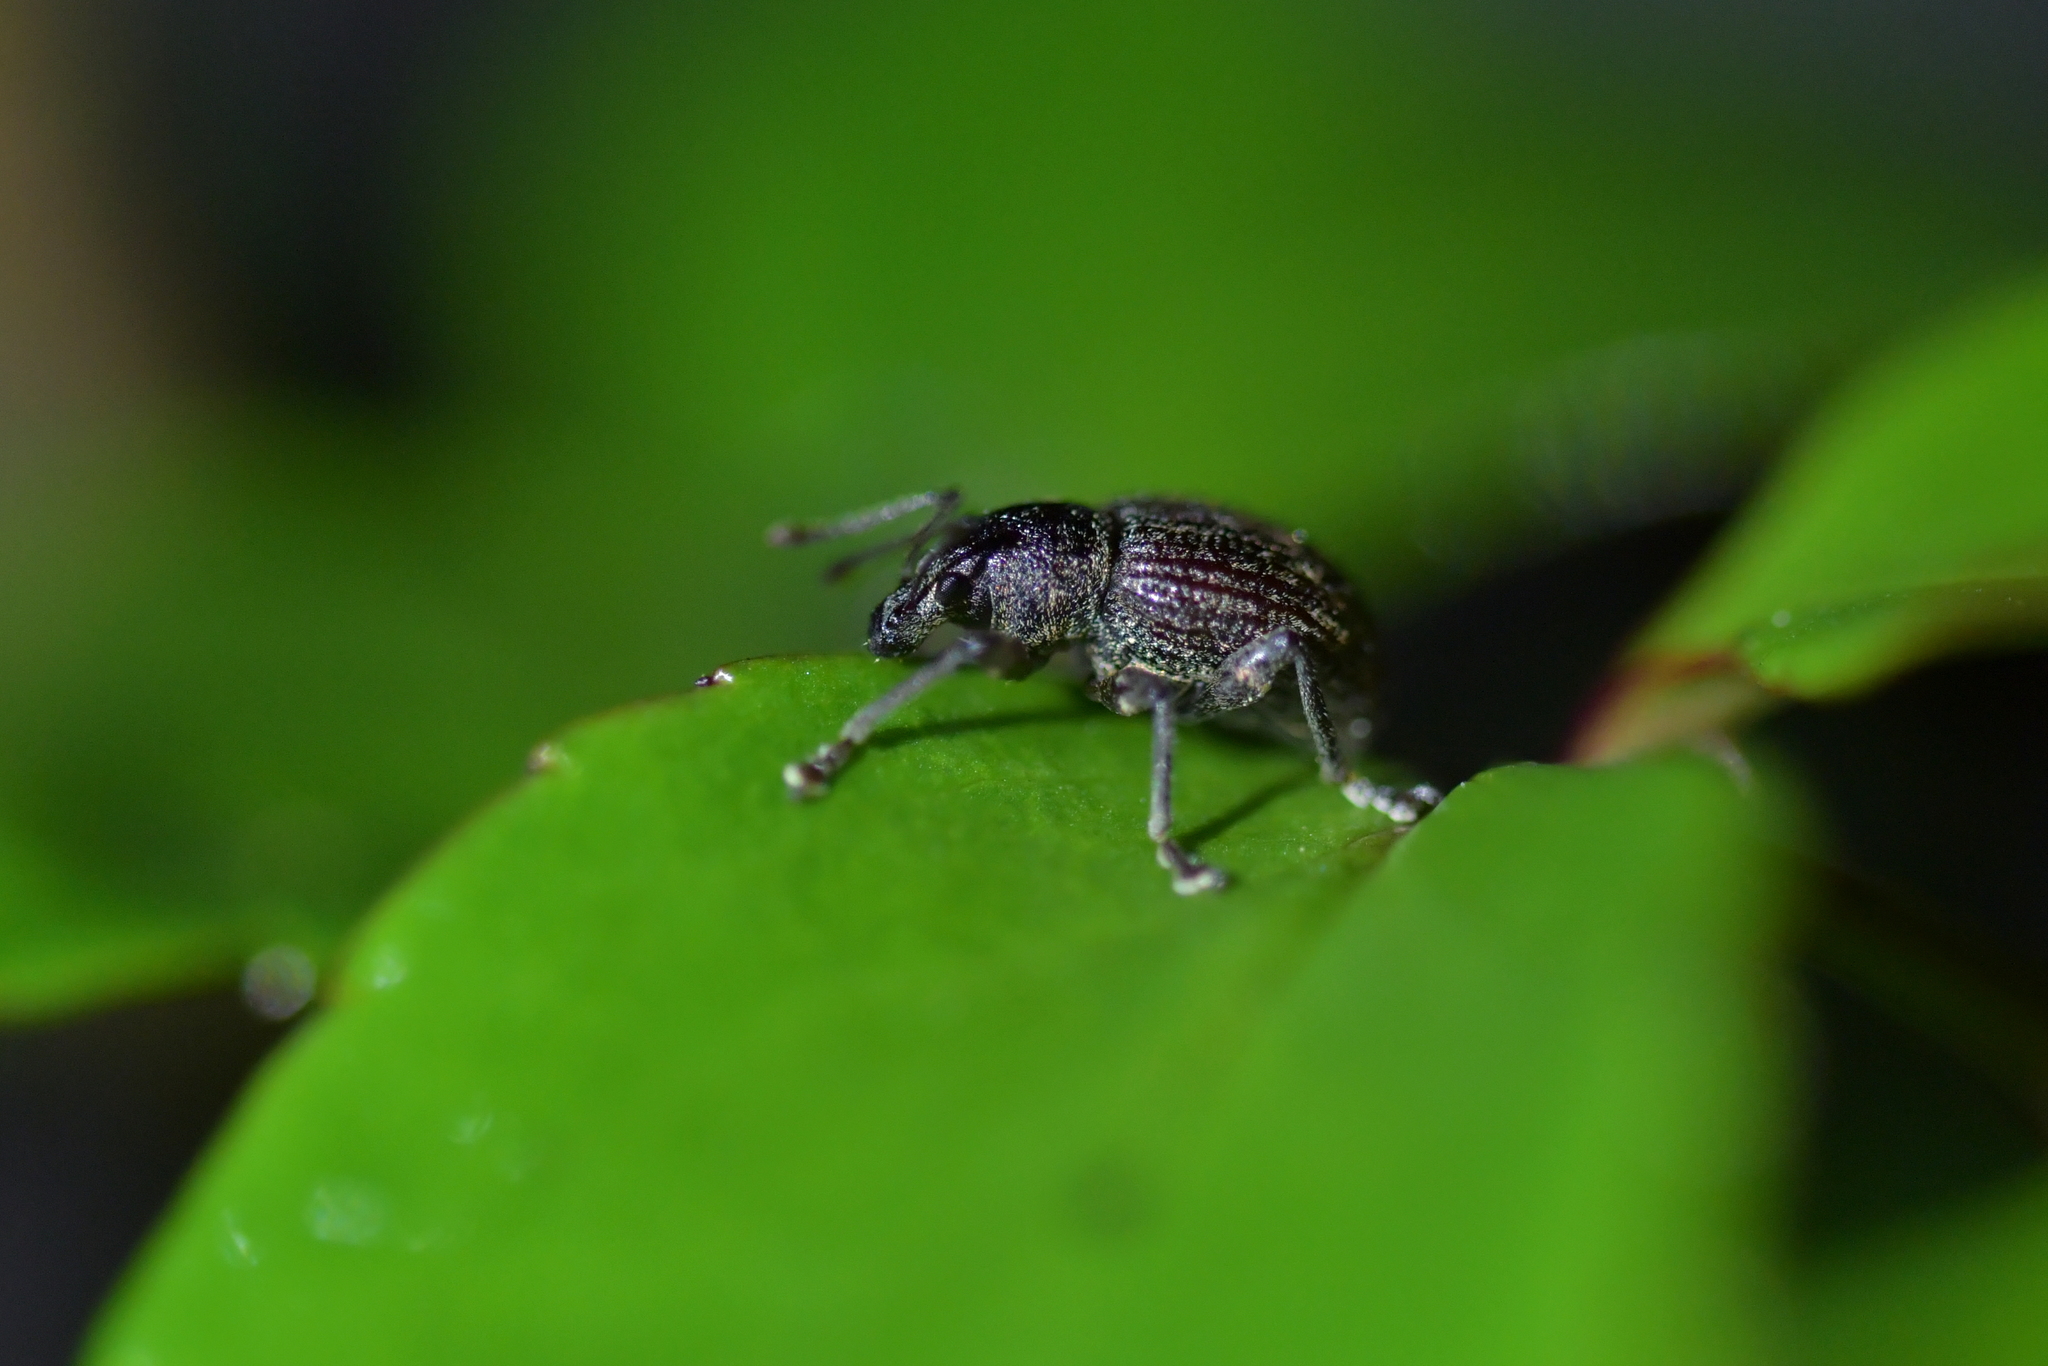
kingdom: Animalia
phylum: Arthropoda
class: Insecta
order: Coleoptera
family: Curculionidae
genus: Phlyctinus
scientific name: Phlyctinus callosus
